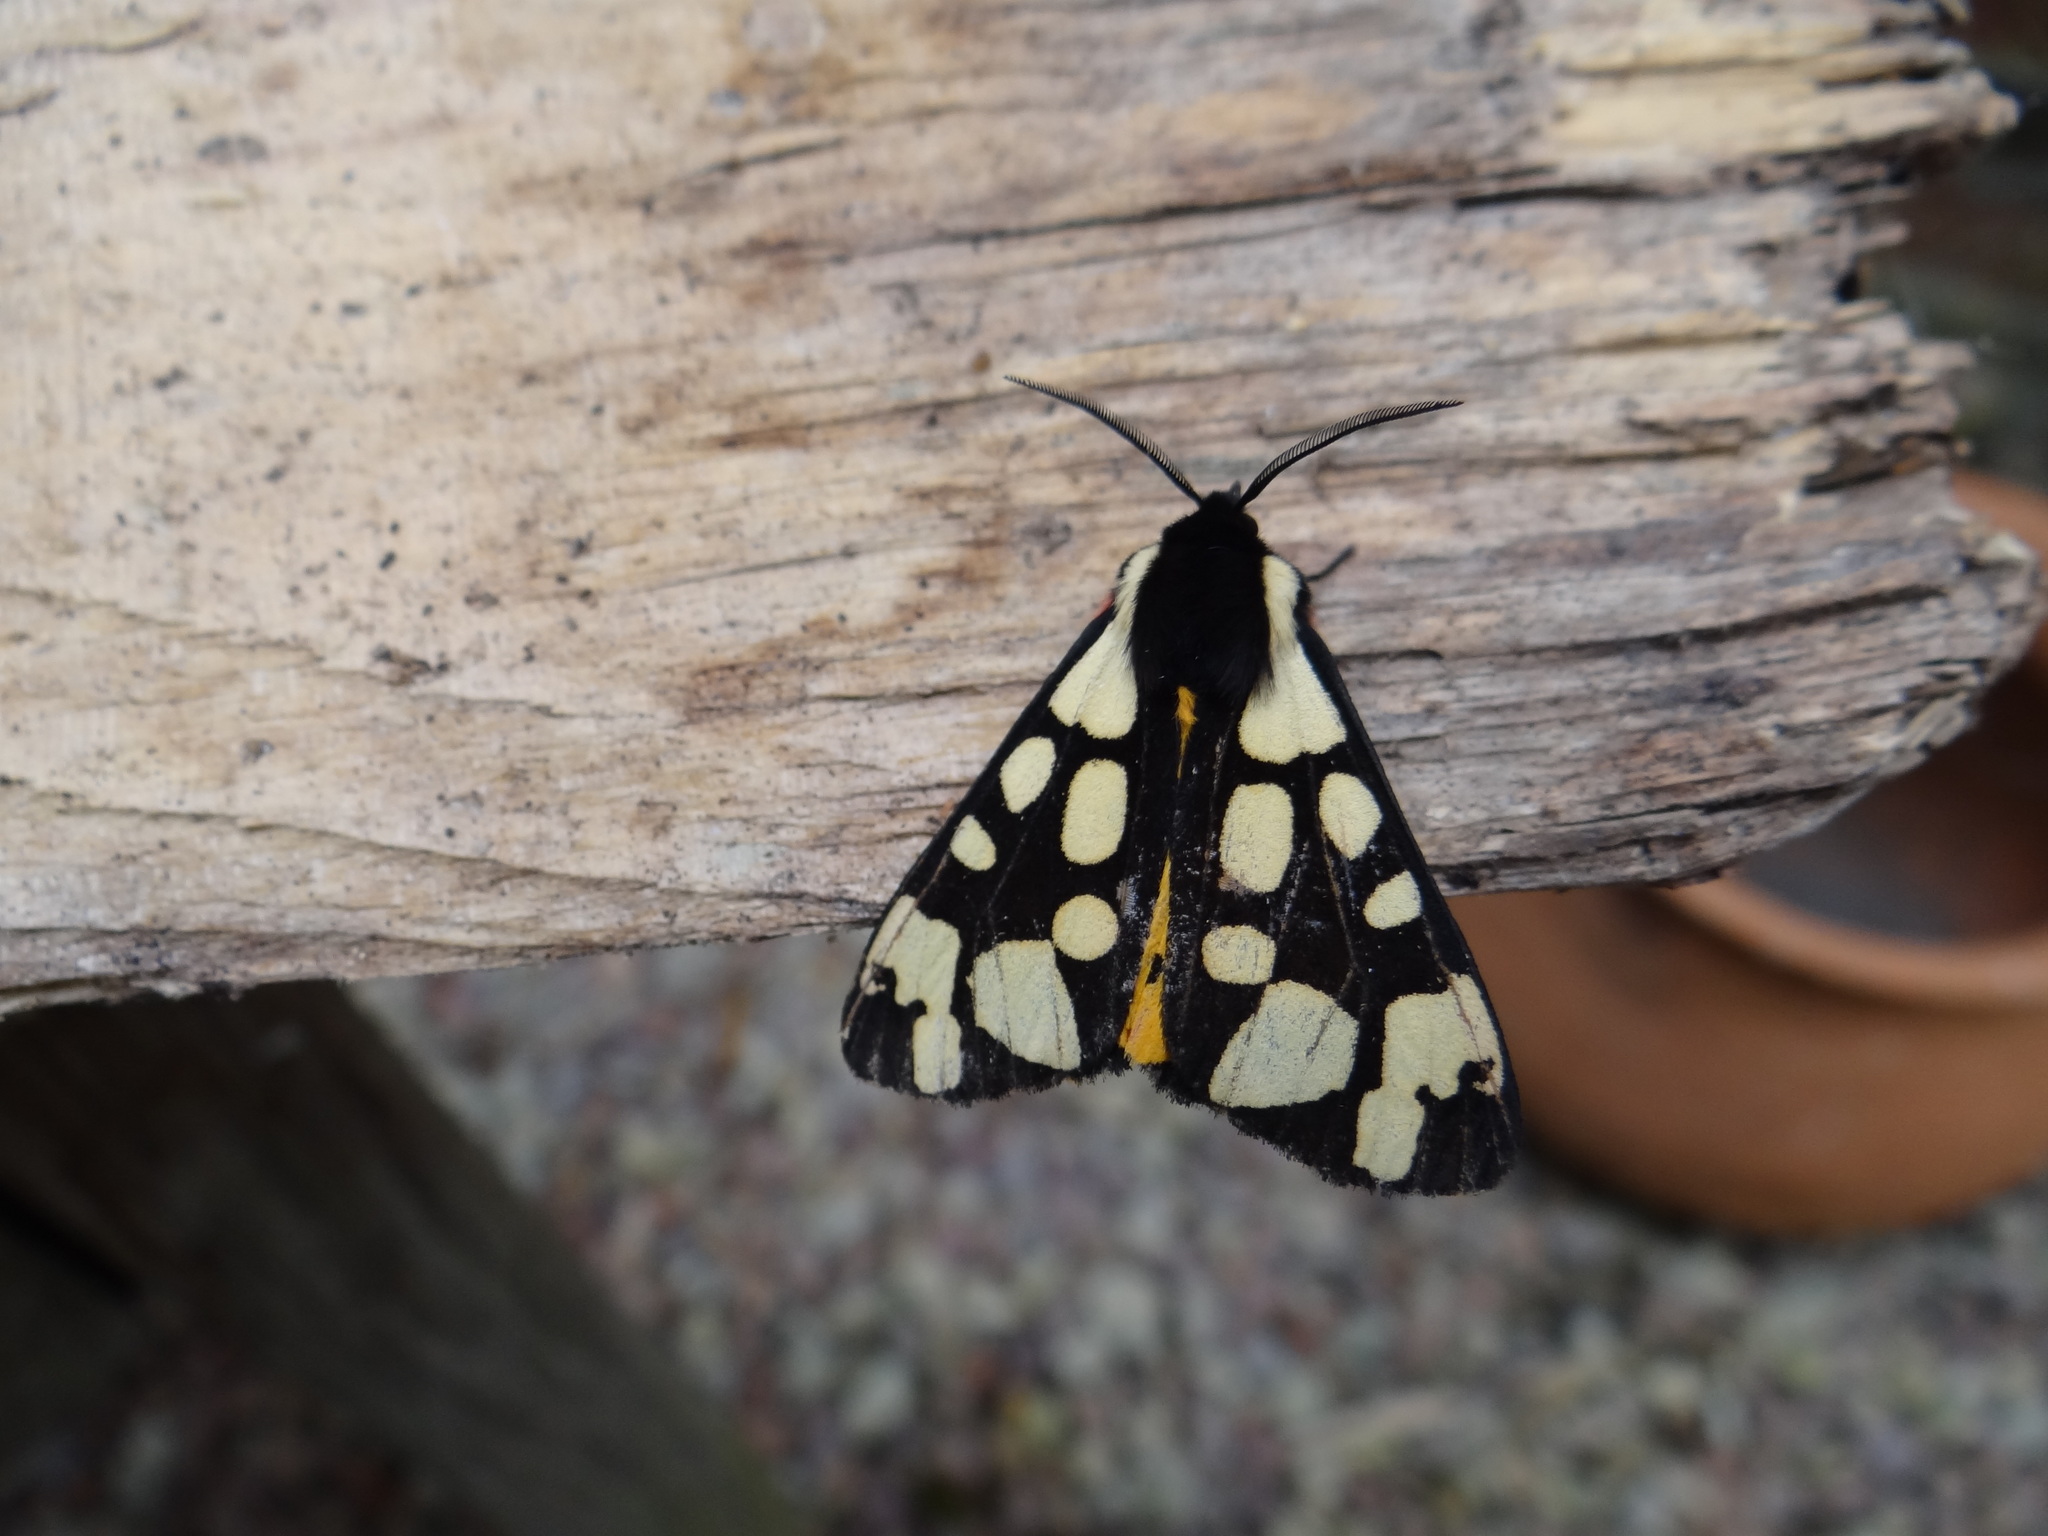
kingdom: Animalia
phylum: Arthropoda
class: Insecta
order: Lepidoptera
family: Erebidae
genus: Epicallia
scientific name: Epicallia villica
